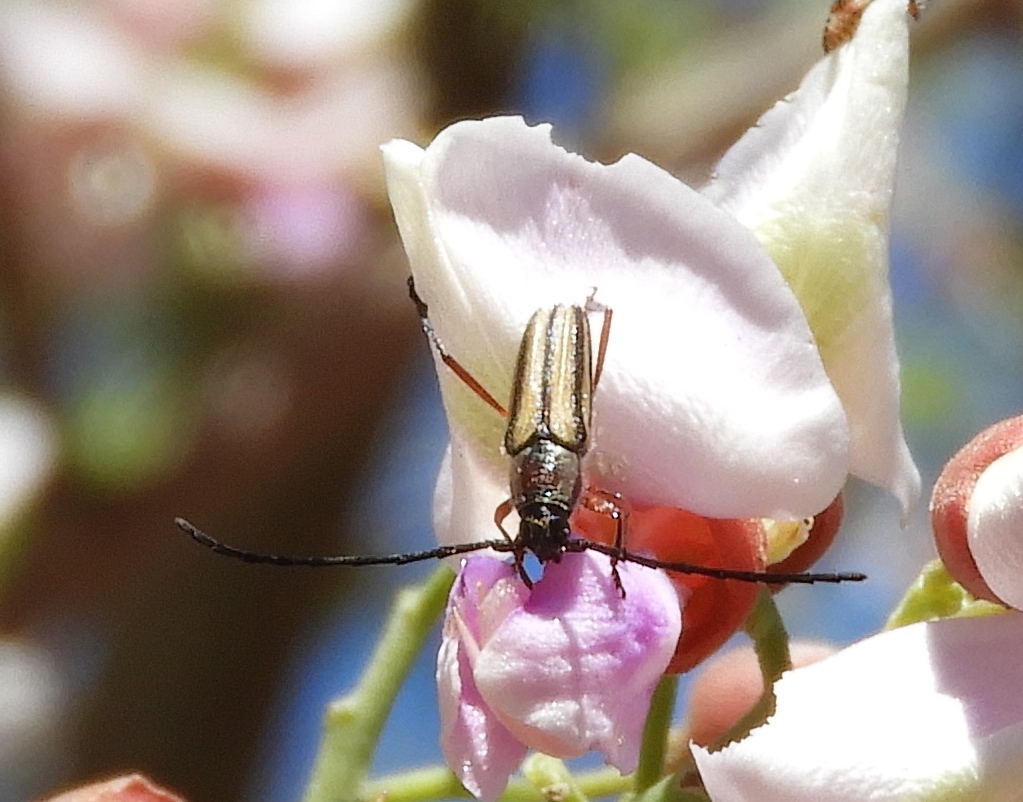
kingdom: Animalia
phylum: Arthropoda
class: Insecta
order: Coleoptera
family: Cerambycidae
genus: Sphaenothecus
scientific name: Sphaenothecus bilineatus
